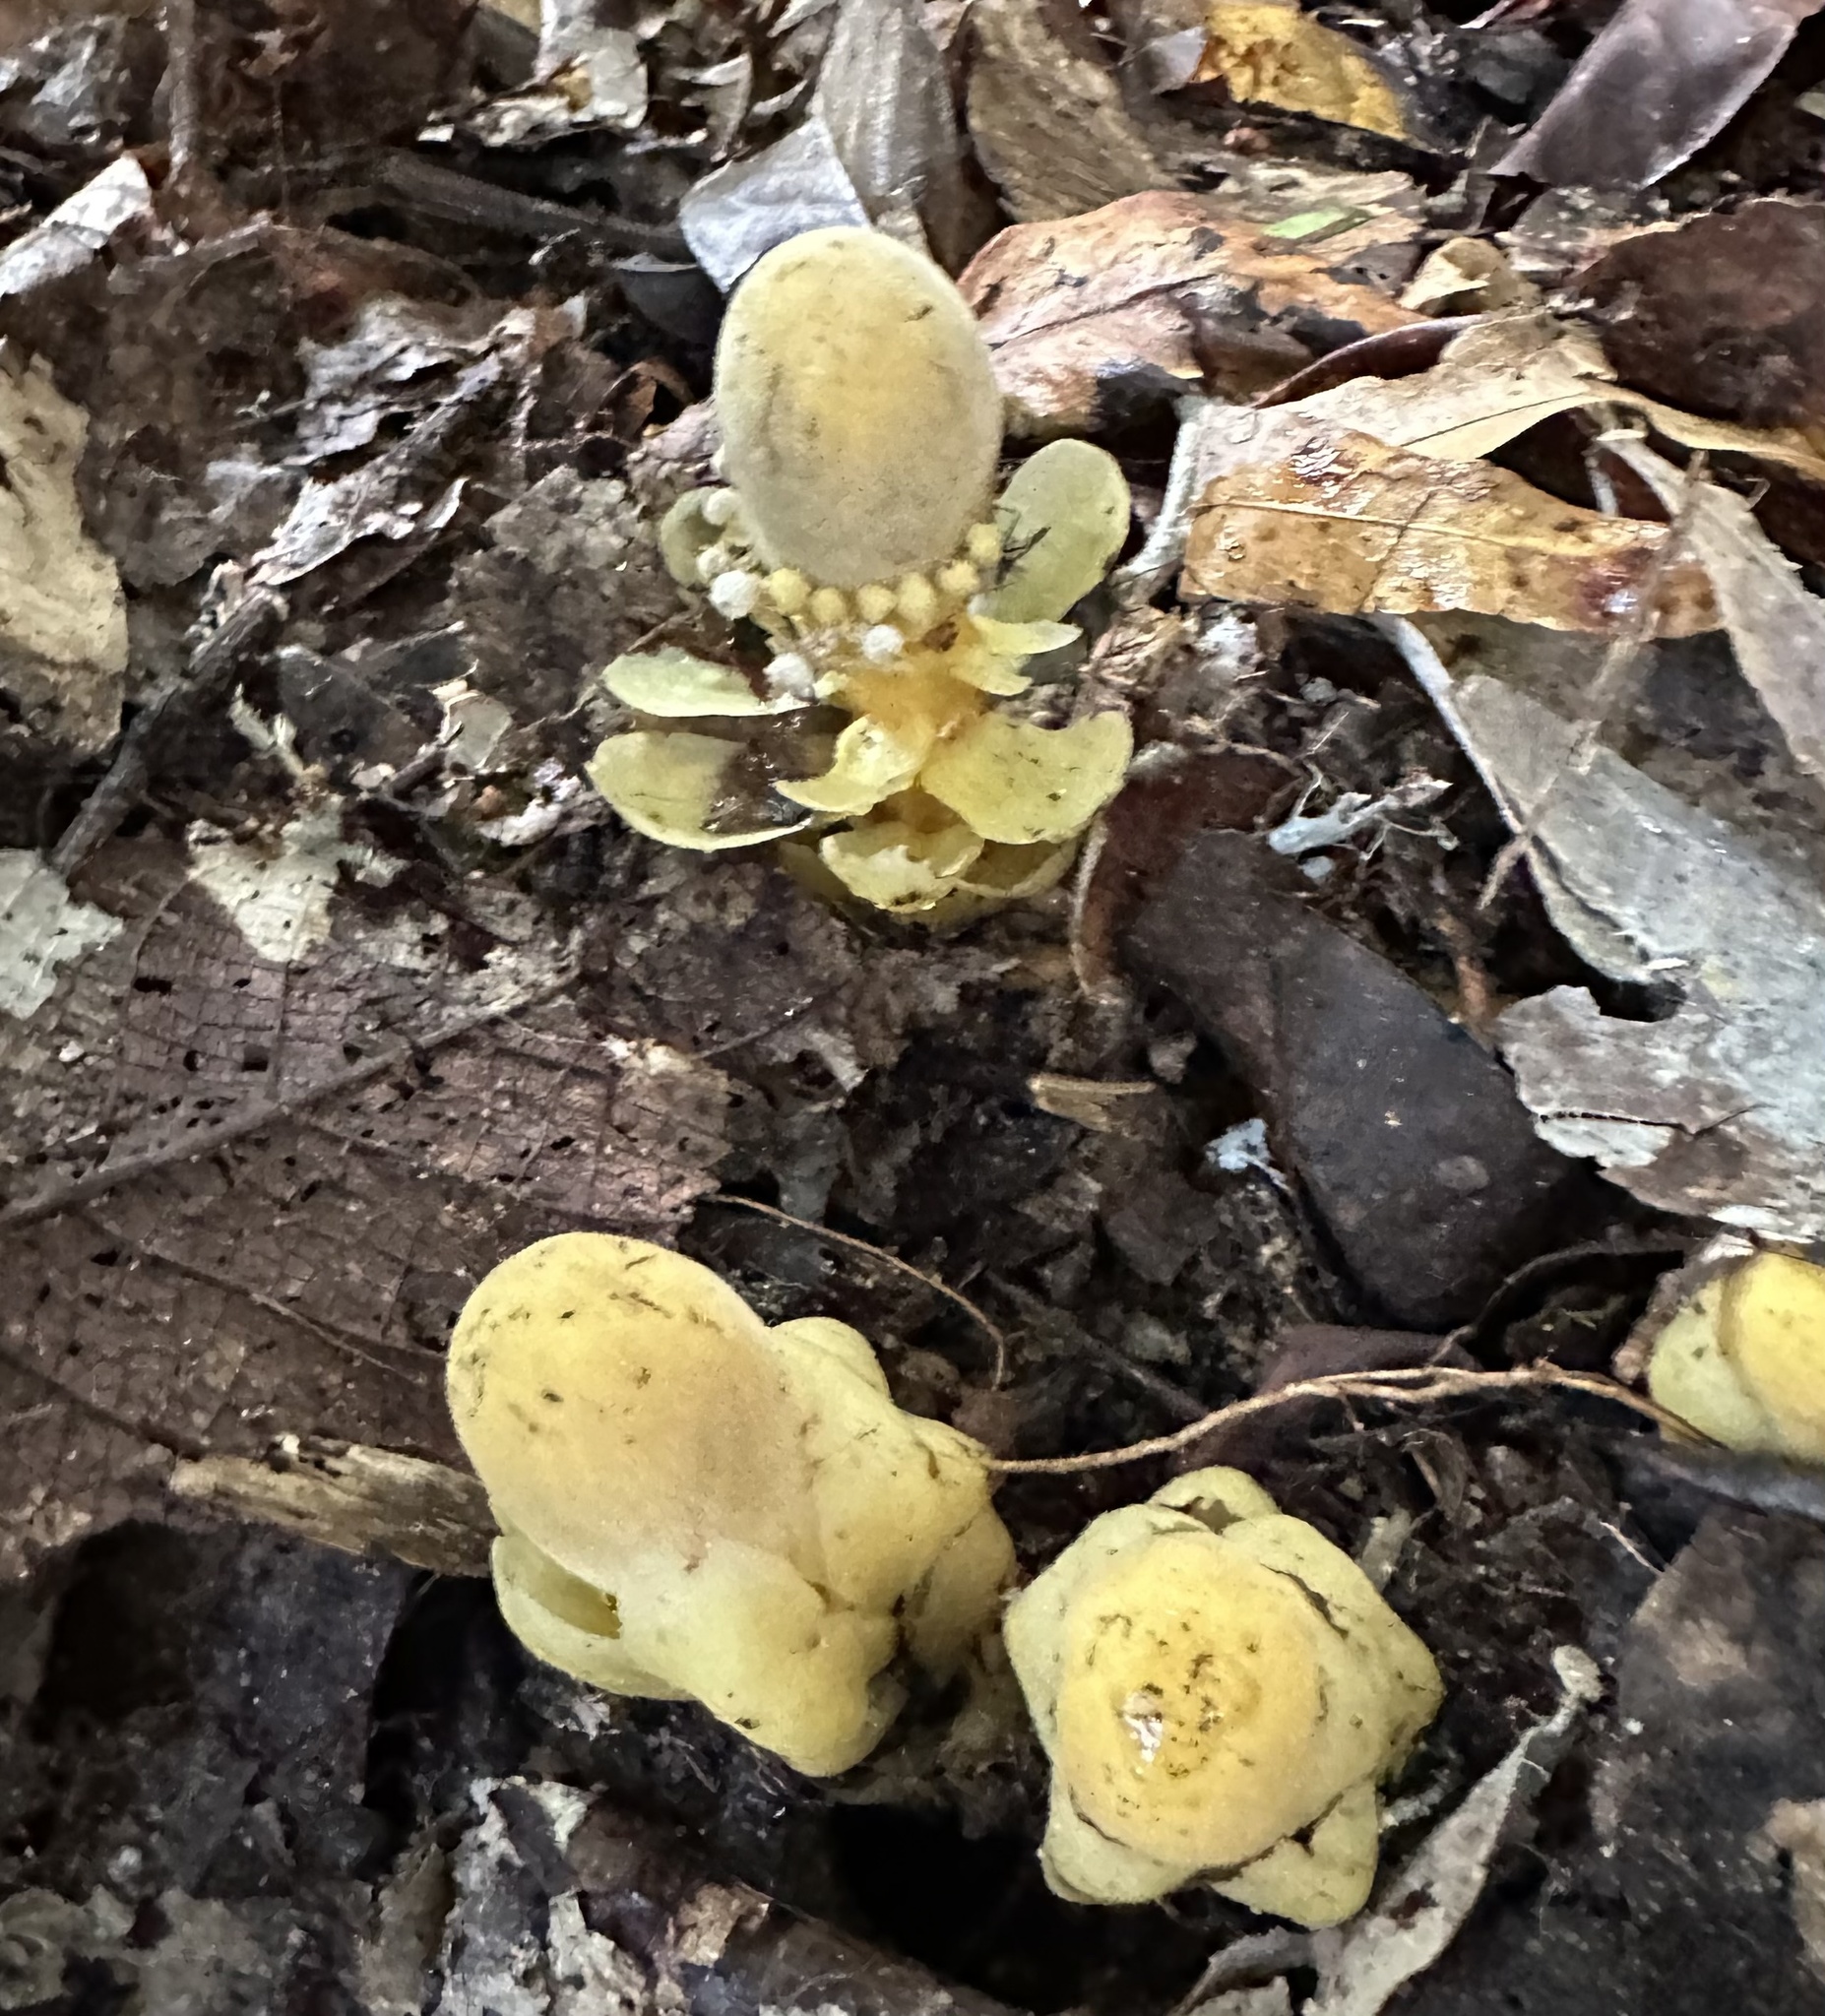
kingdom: Plantae
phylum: Tracheophyta
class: Magnoliopsida
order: Santalales
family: Balanophoraceae
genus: Balanophora
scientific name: Balanophora fungosa
